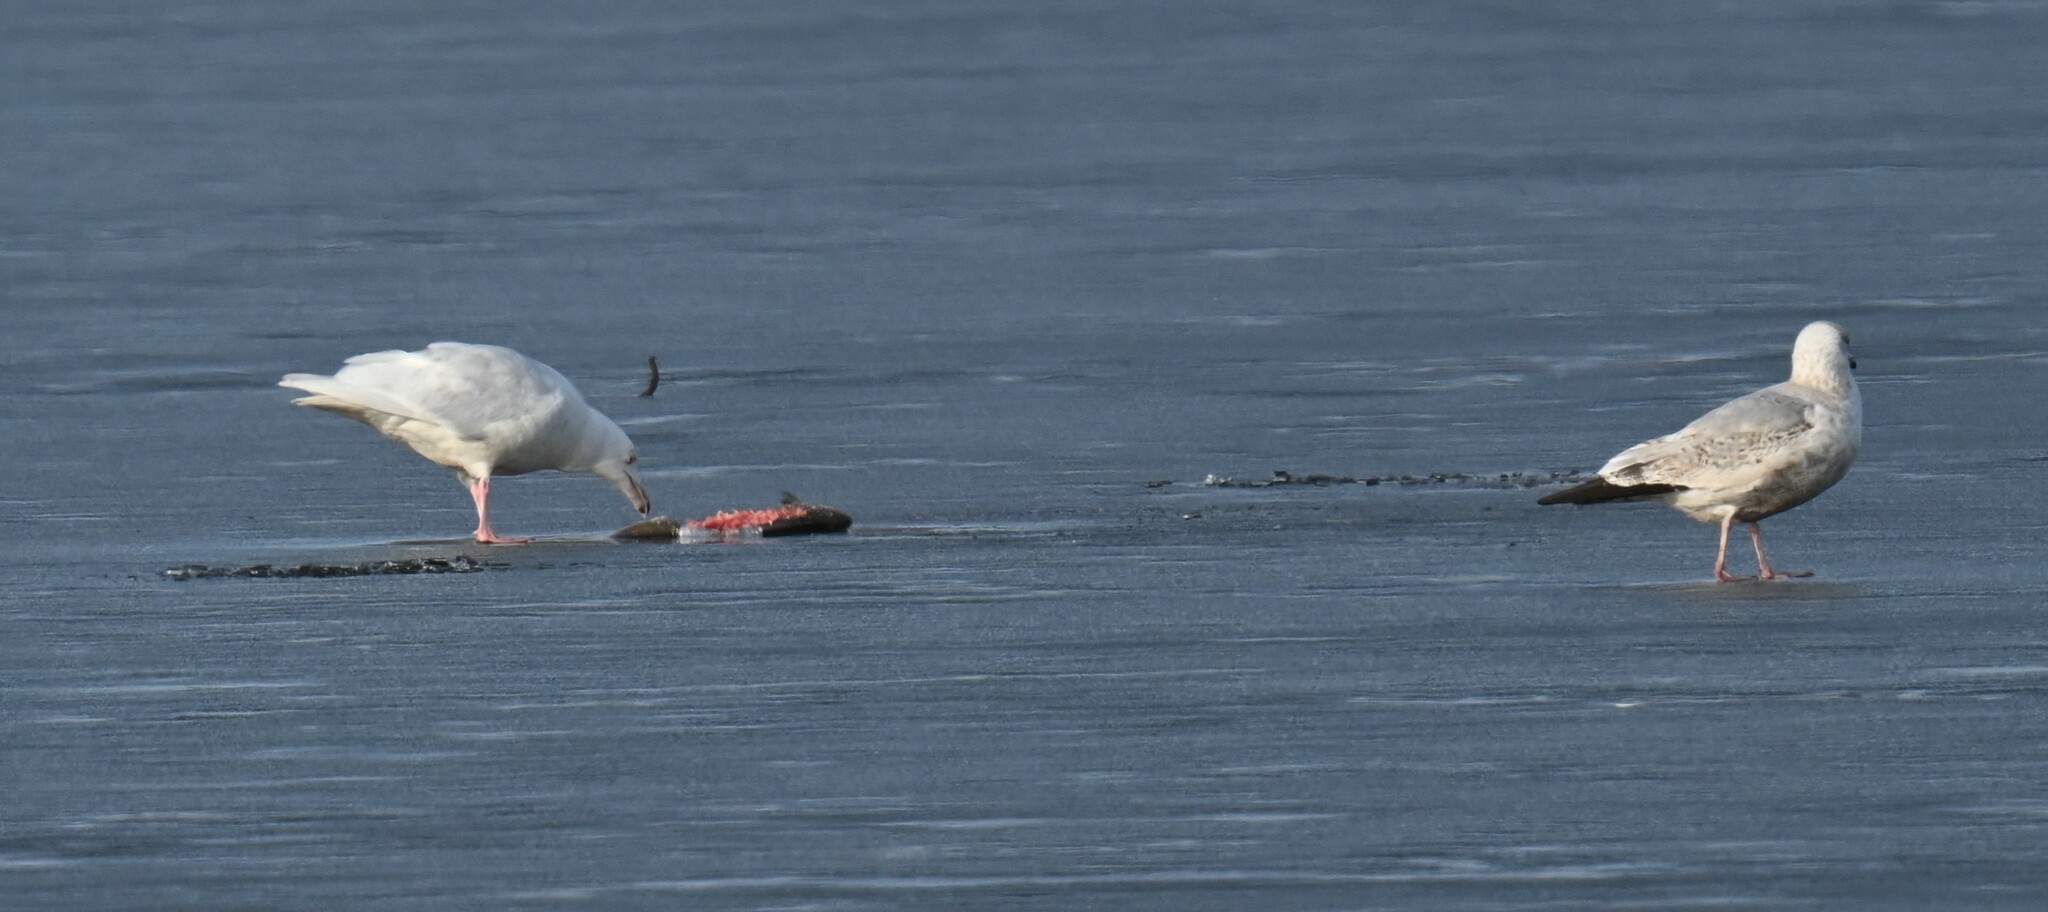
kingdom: Animalia
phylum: Chordata
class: Aves
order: Charadriiformes
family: Laridae
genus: Larus
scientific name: Larus hyperboreus
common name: Glaucous gull
